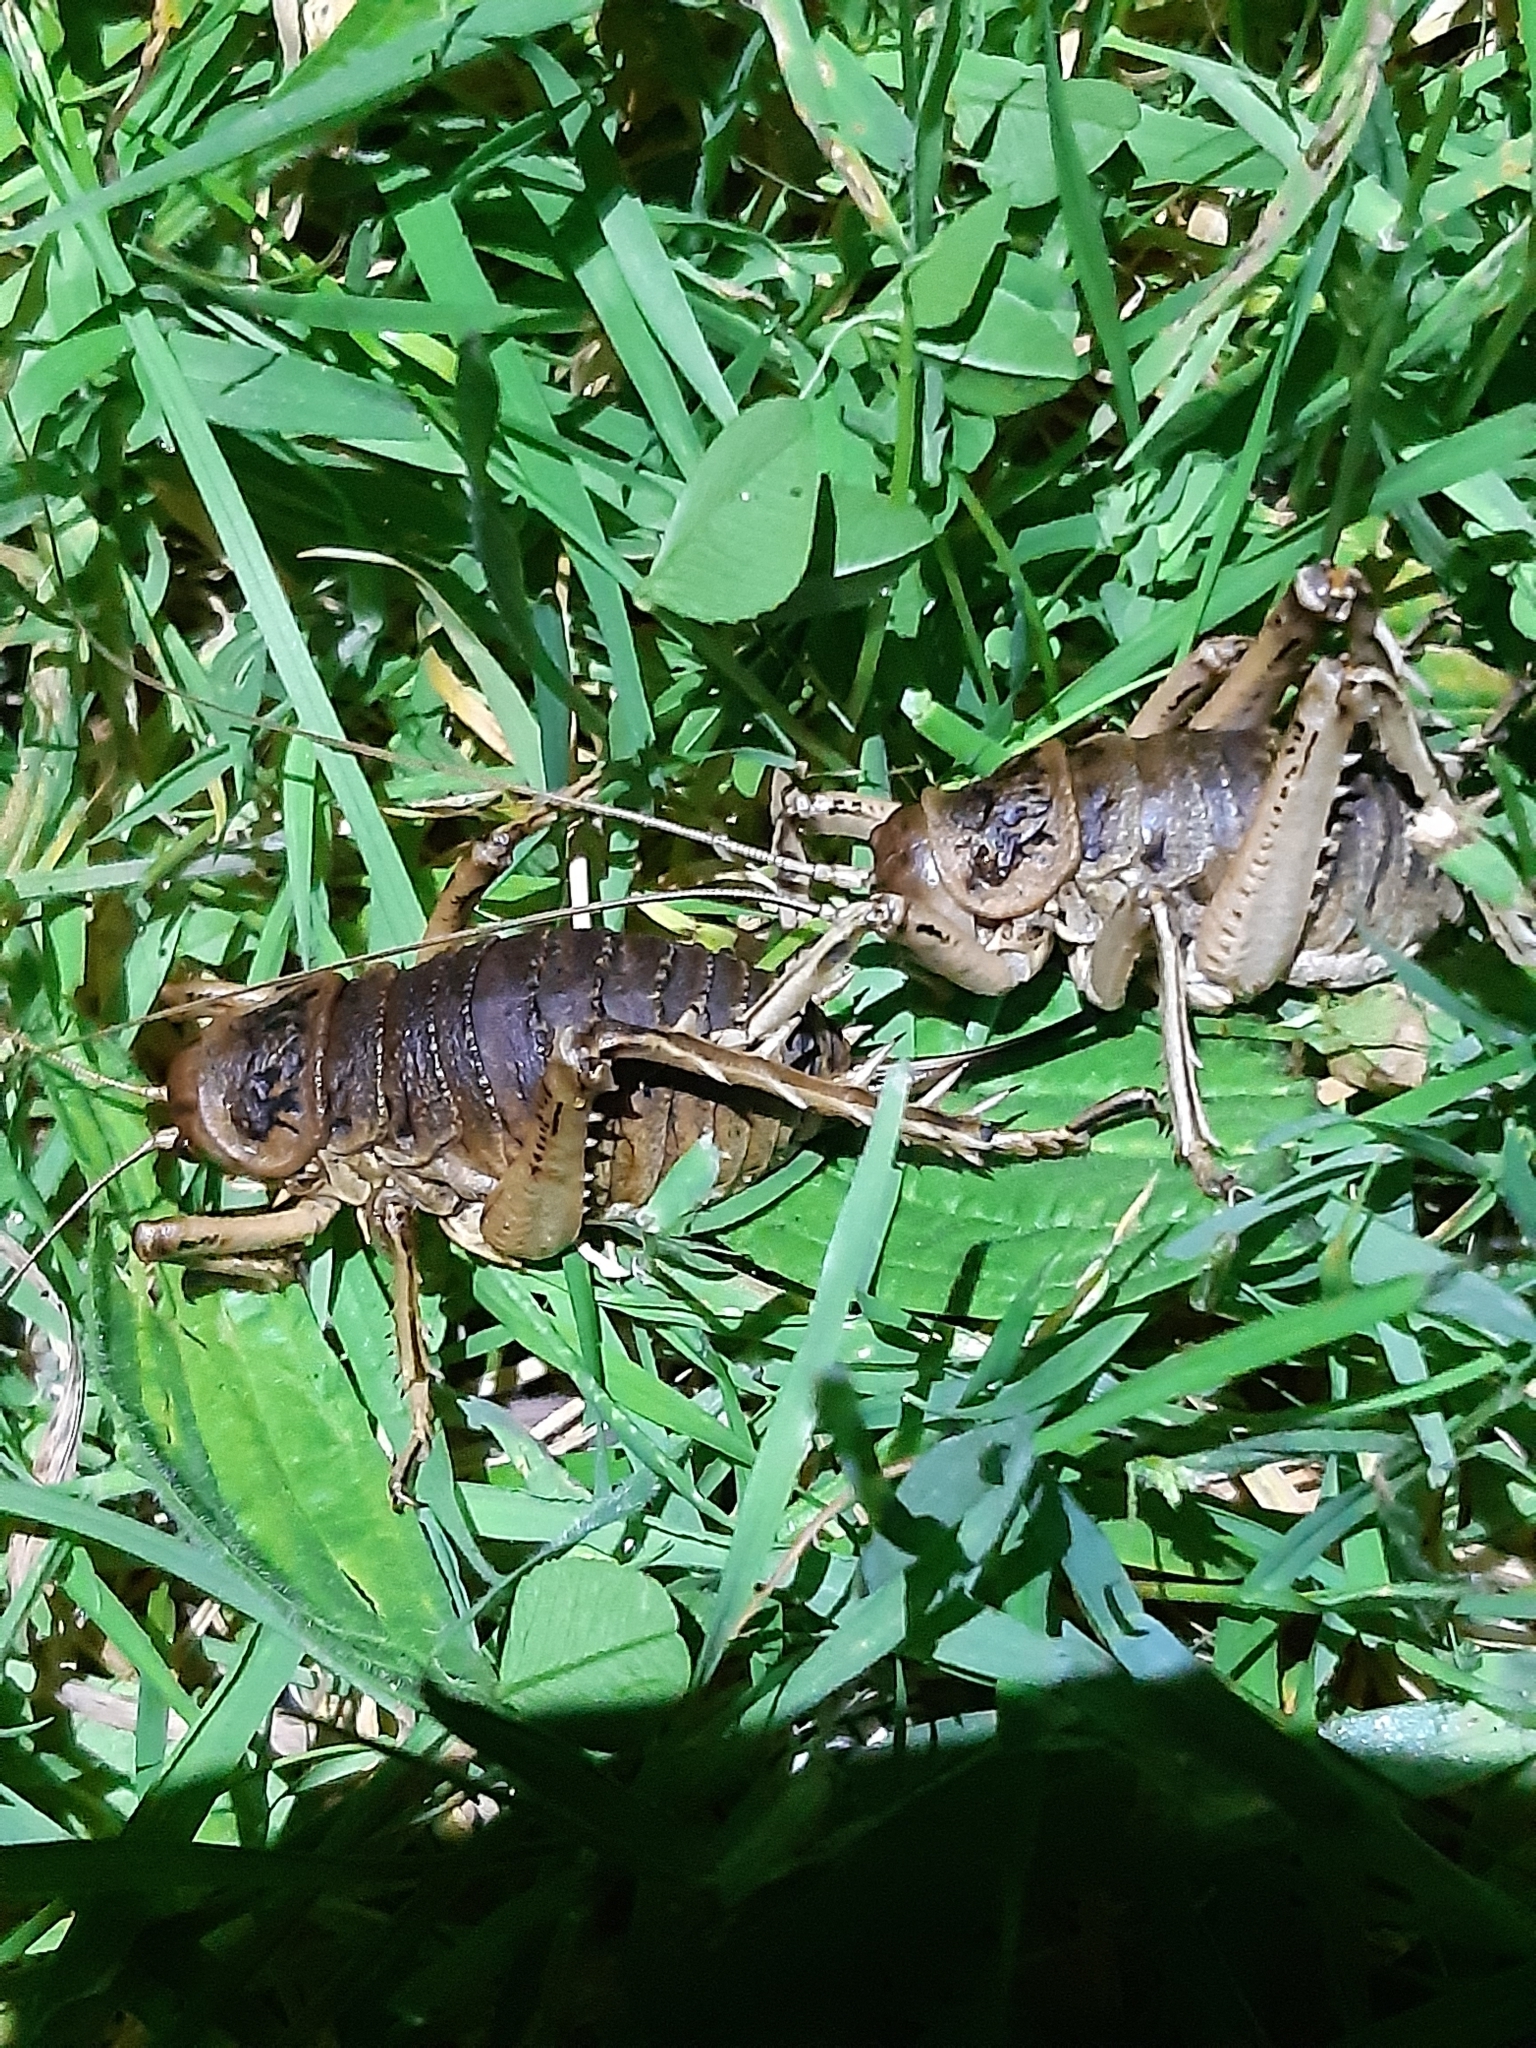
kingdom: Animalia
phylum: Arthropoda
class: Insecta
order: Orthoptera
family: Anostostomatidae
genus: Deinacrida
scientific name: Deinacrida rugosa
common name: Stephens island weta
